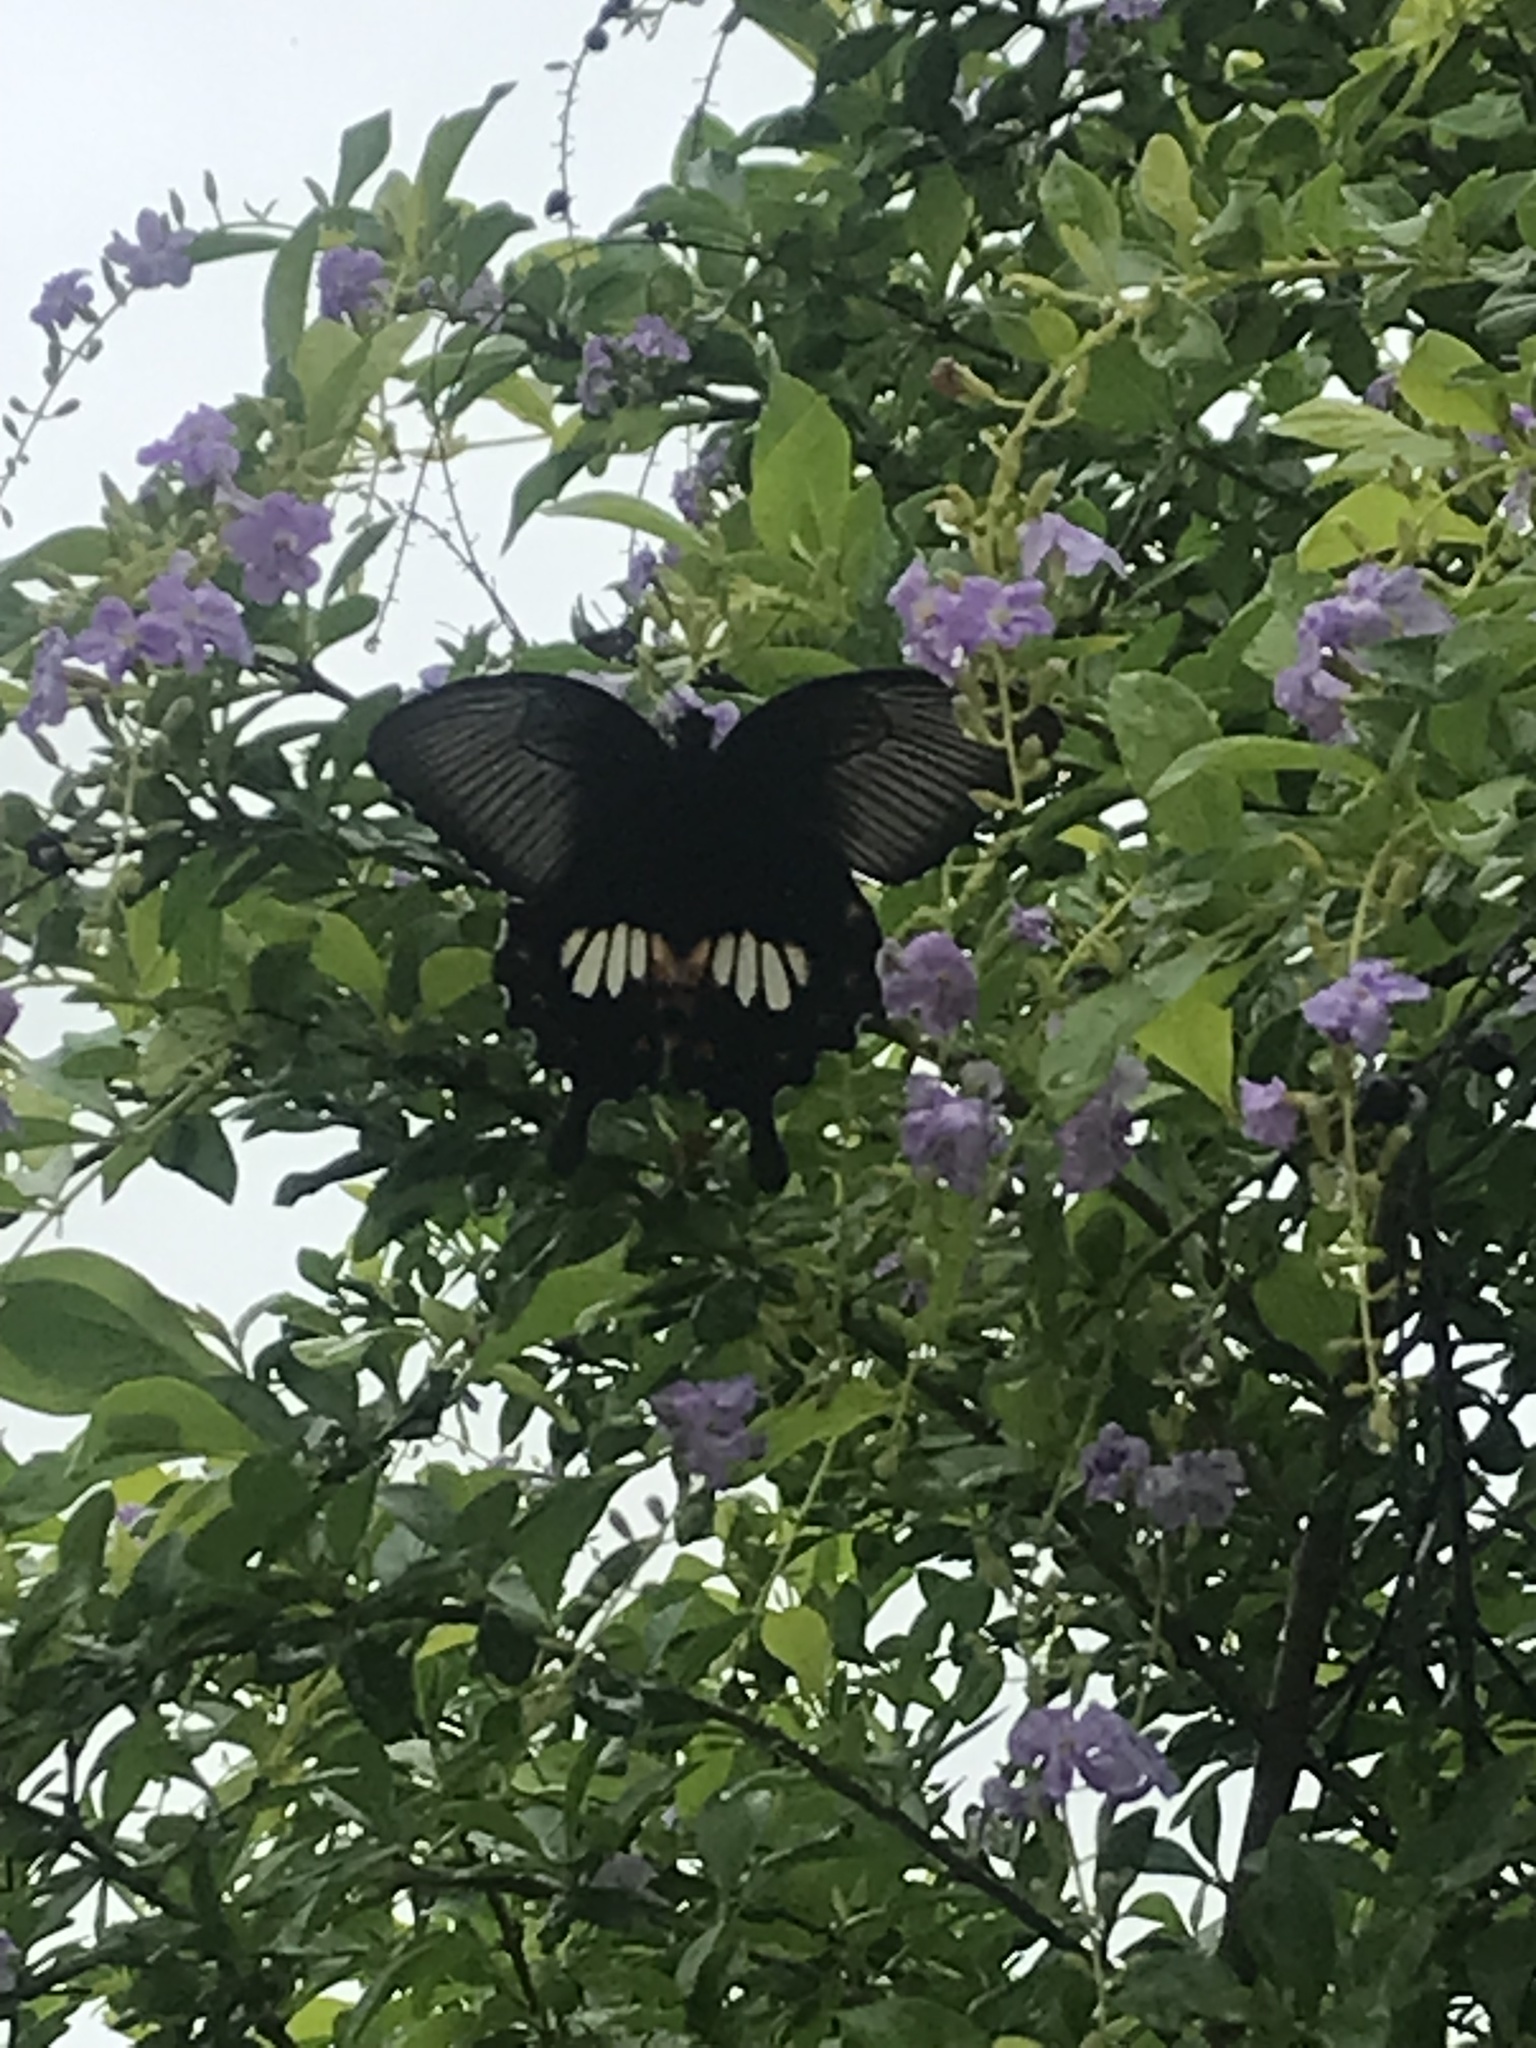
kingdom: Animalia
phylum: Arthropoda
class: Insecta
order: Lepidoptera
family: Papilionidae
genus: Papilio
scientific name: Papilio polytes
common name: Common mormon
